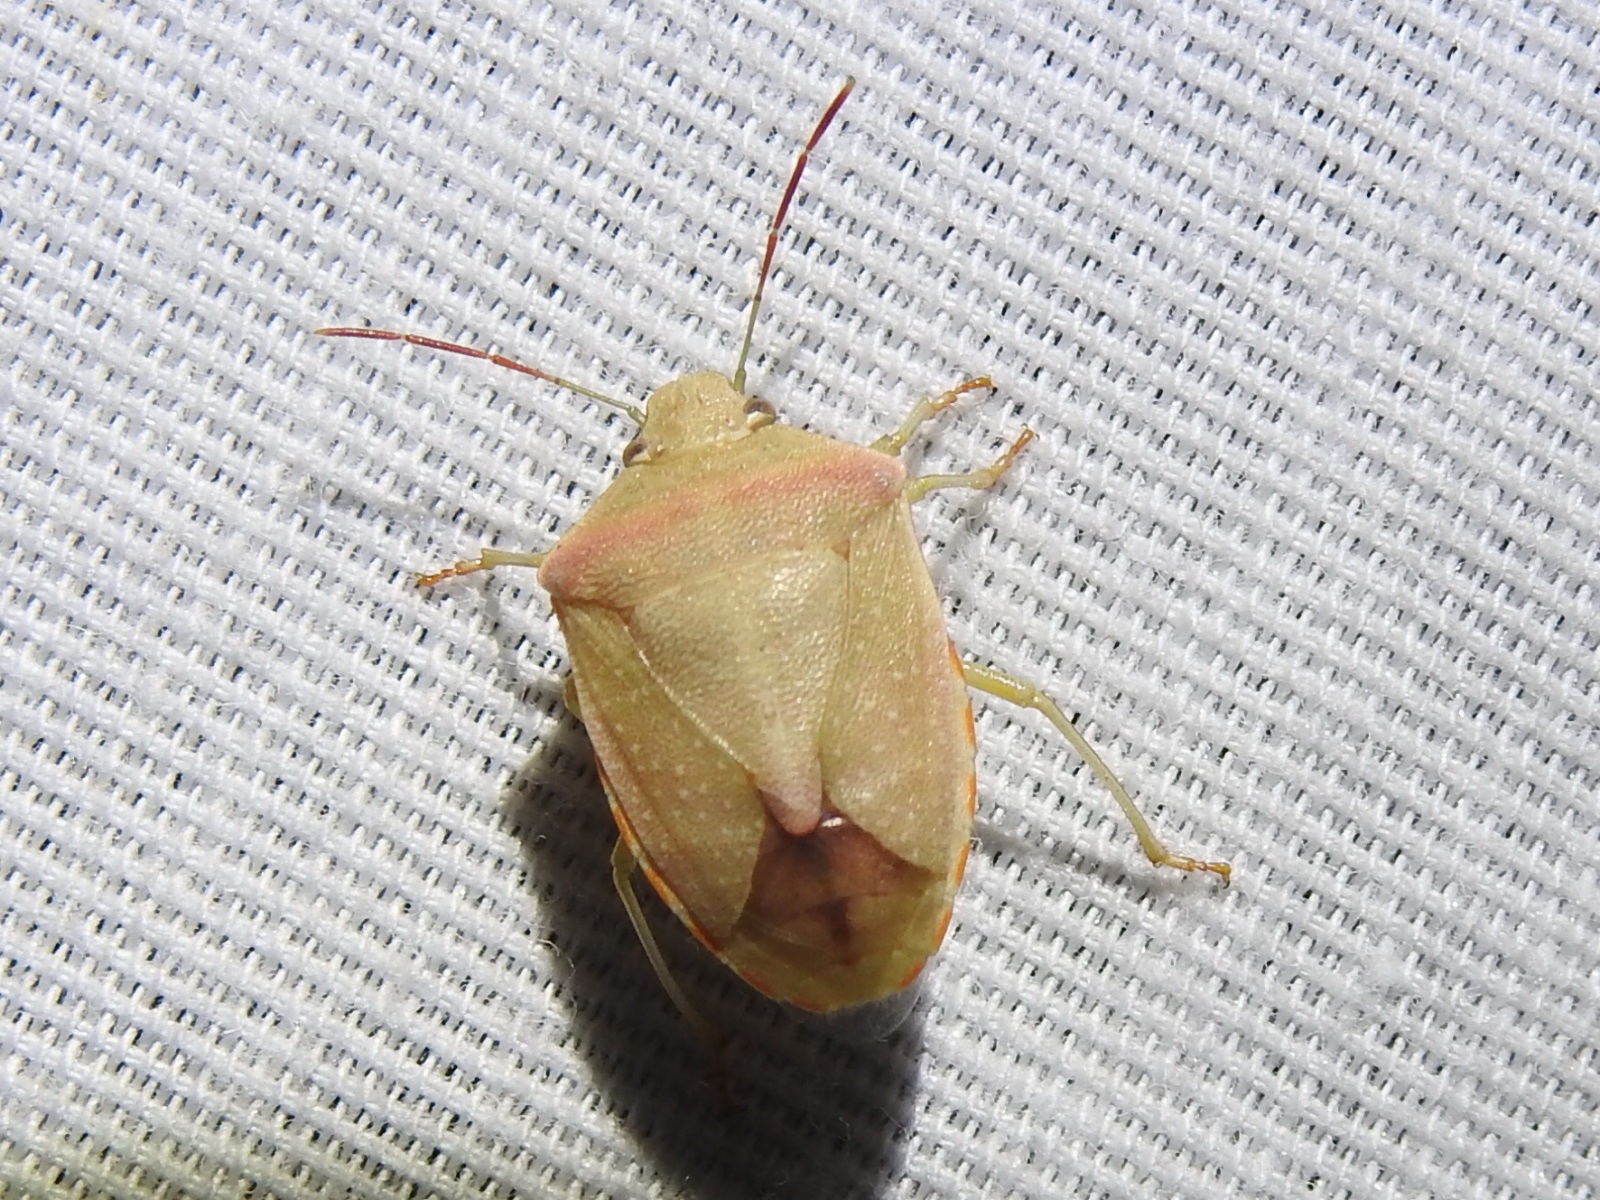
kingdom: Animalia
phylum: Arthropoda
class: Insecta
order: Hemiptera
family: Pentatomidae
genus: Thyanta
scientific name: Thyanta accerra
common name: Stink bug
